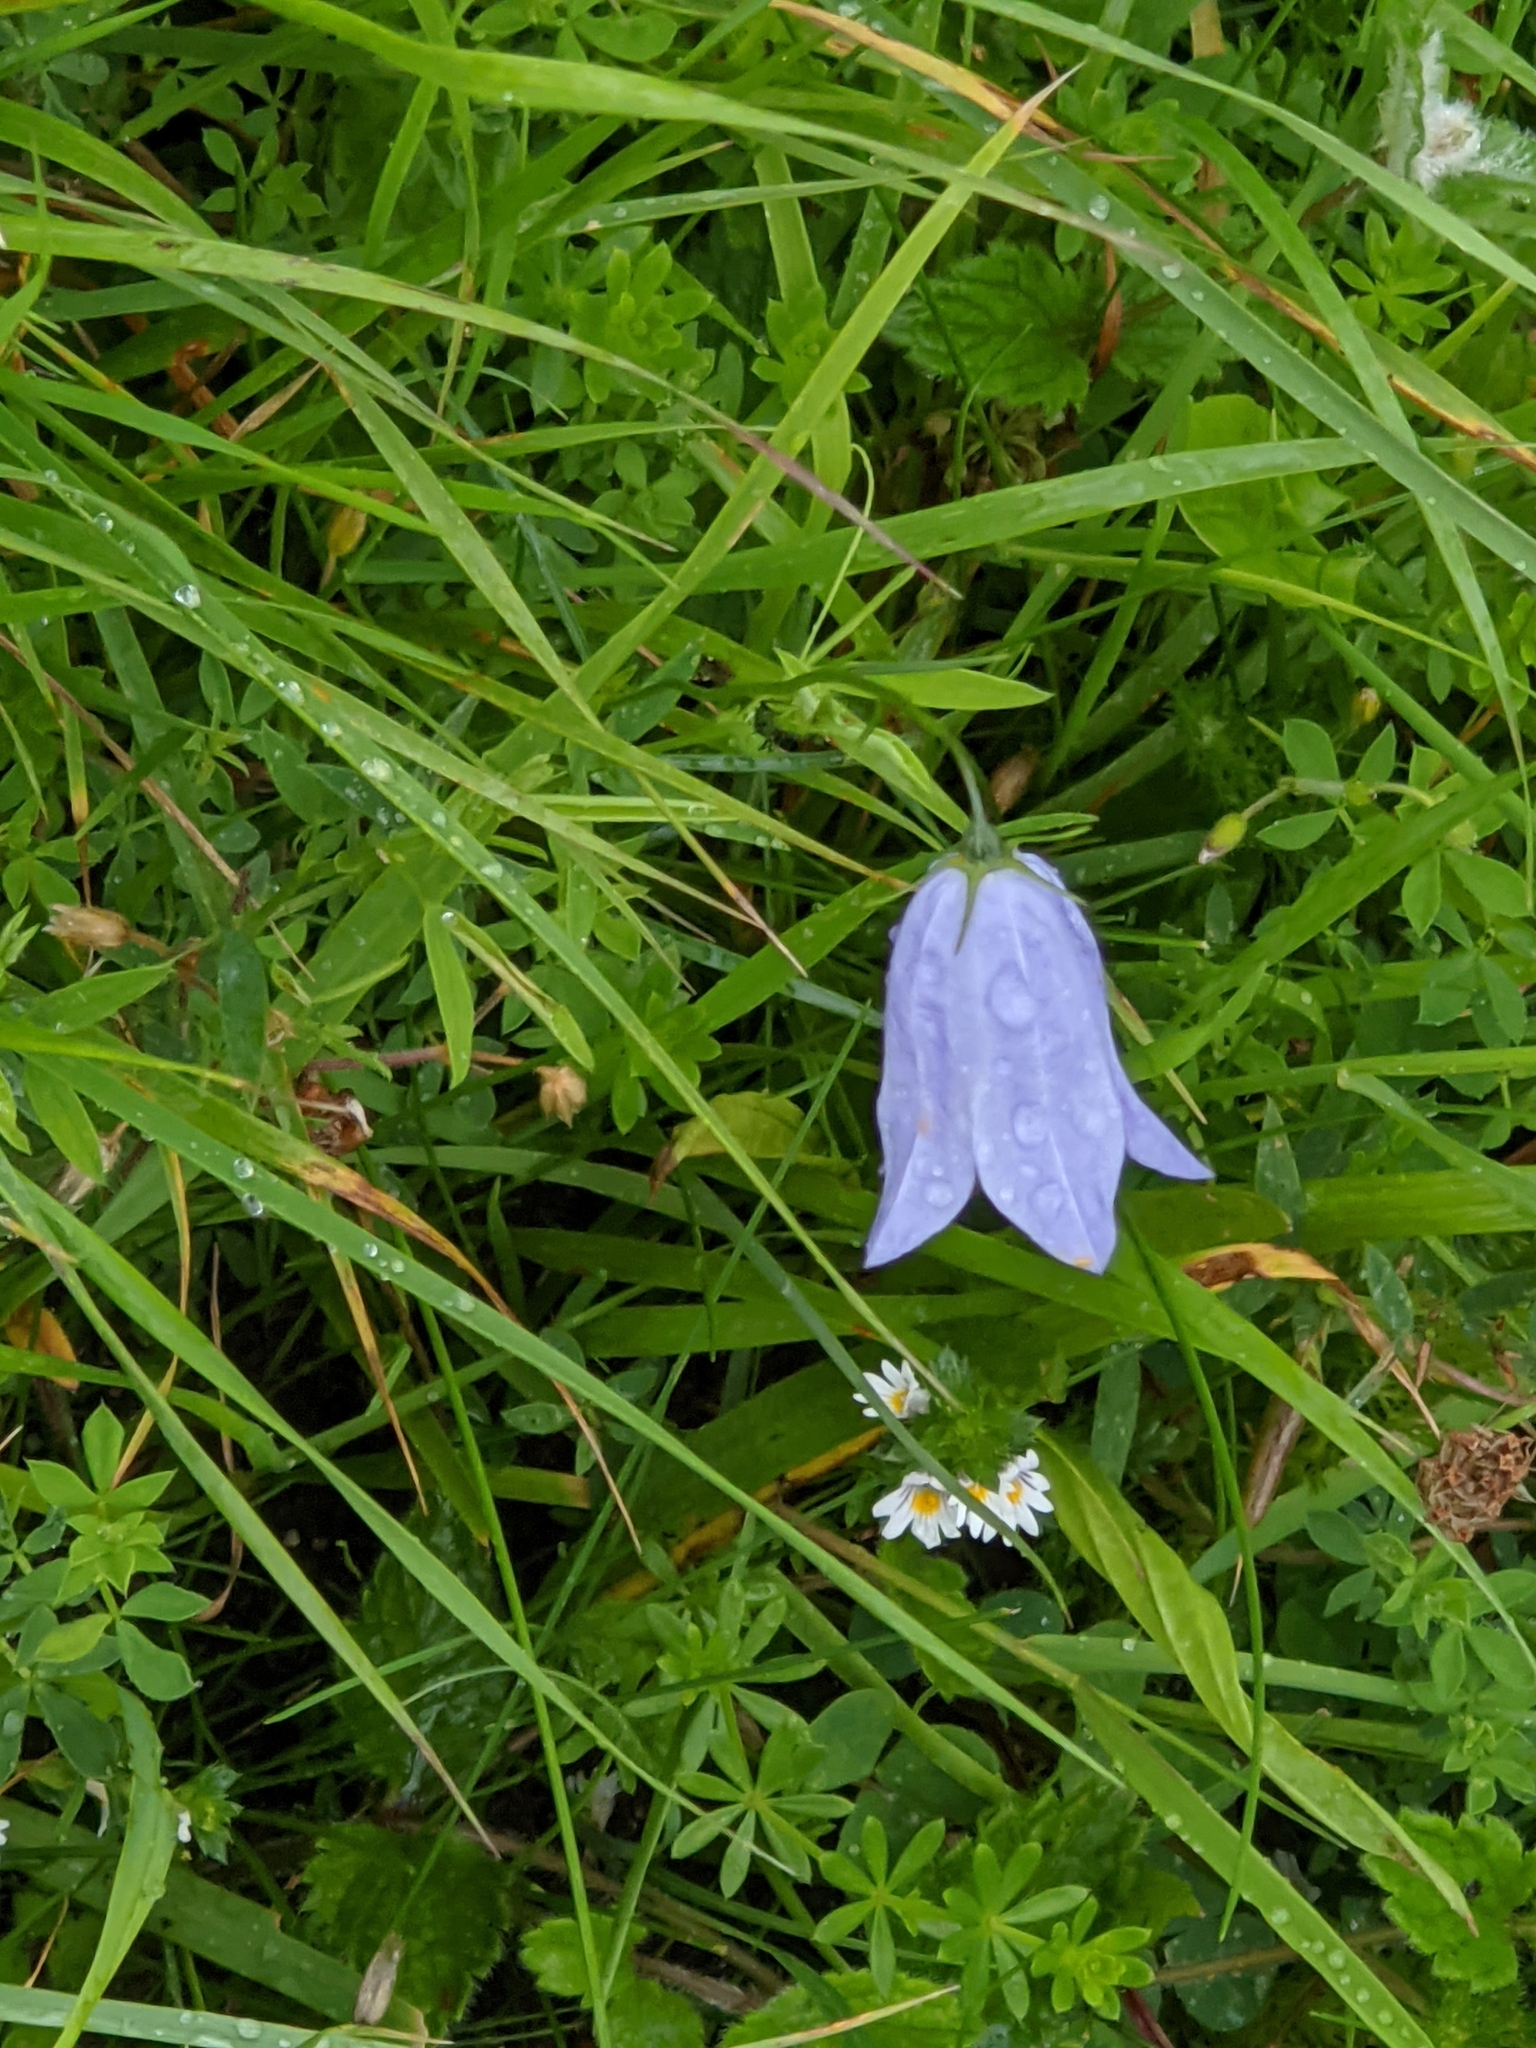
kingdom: Plantae
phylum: Tracheophyta
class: Magnoliopsida
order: Asterales
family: Campanulaceae
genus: Campanula
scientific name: Campanula rotundifolia
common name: Harebell
